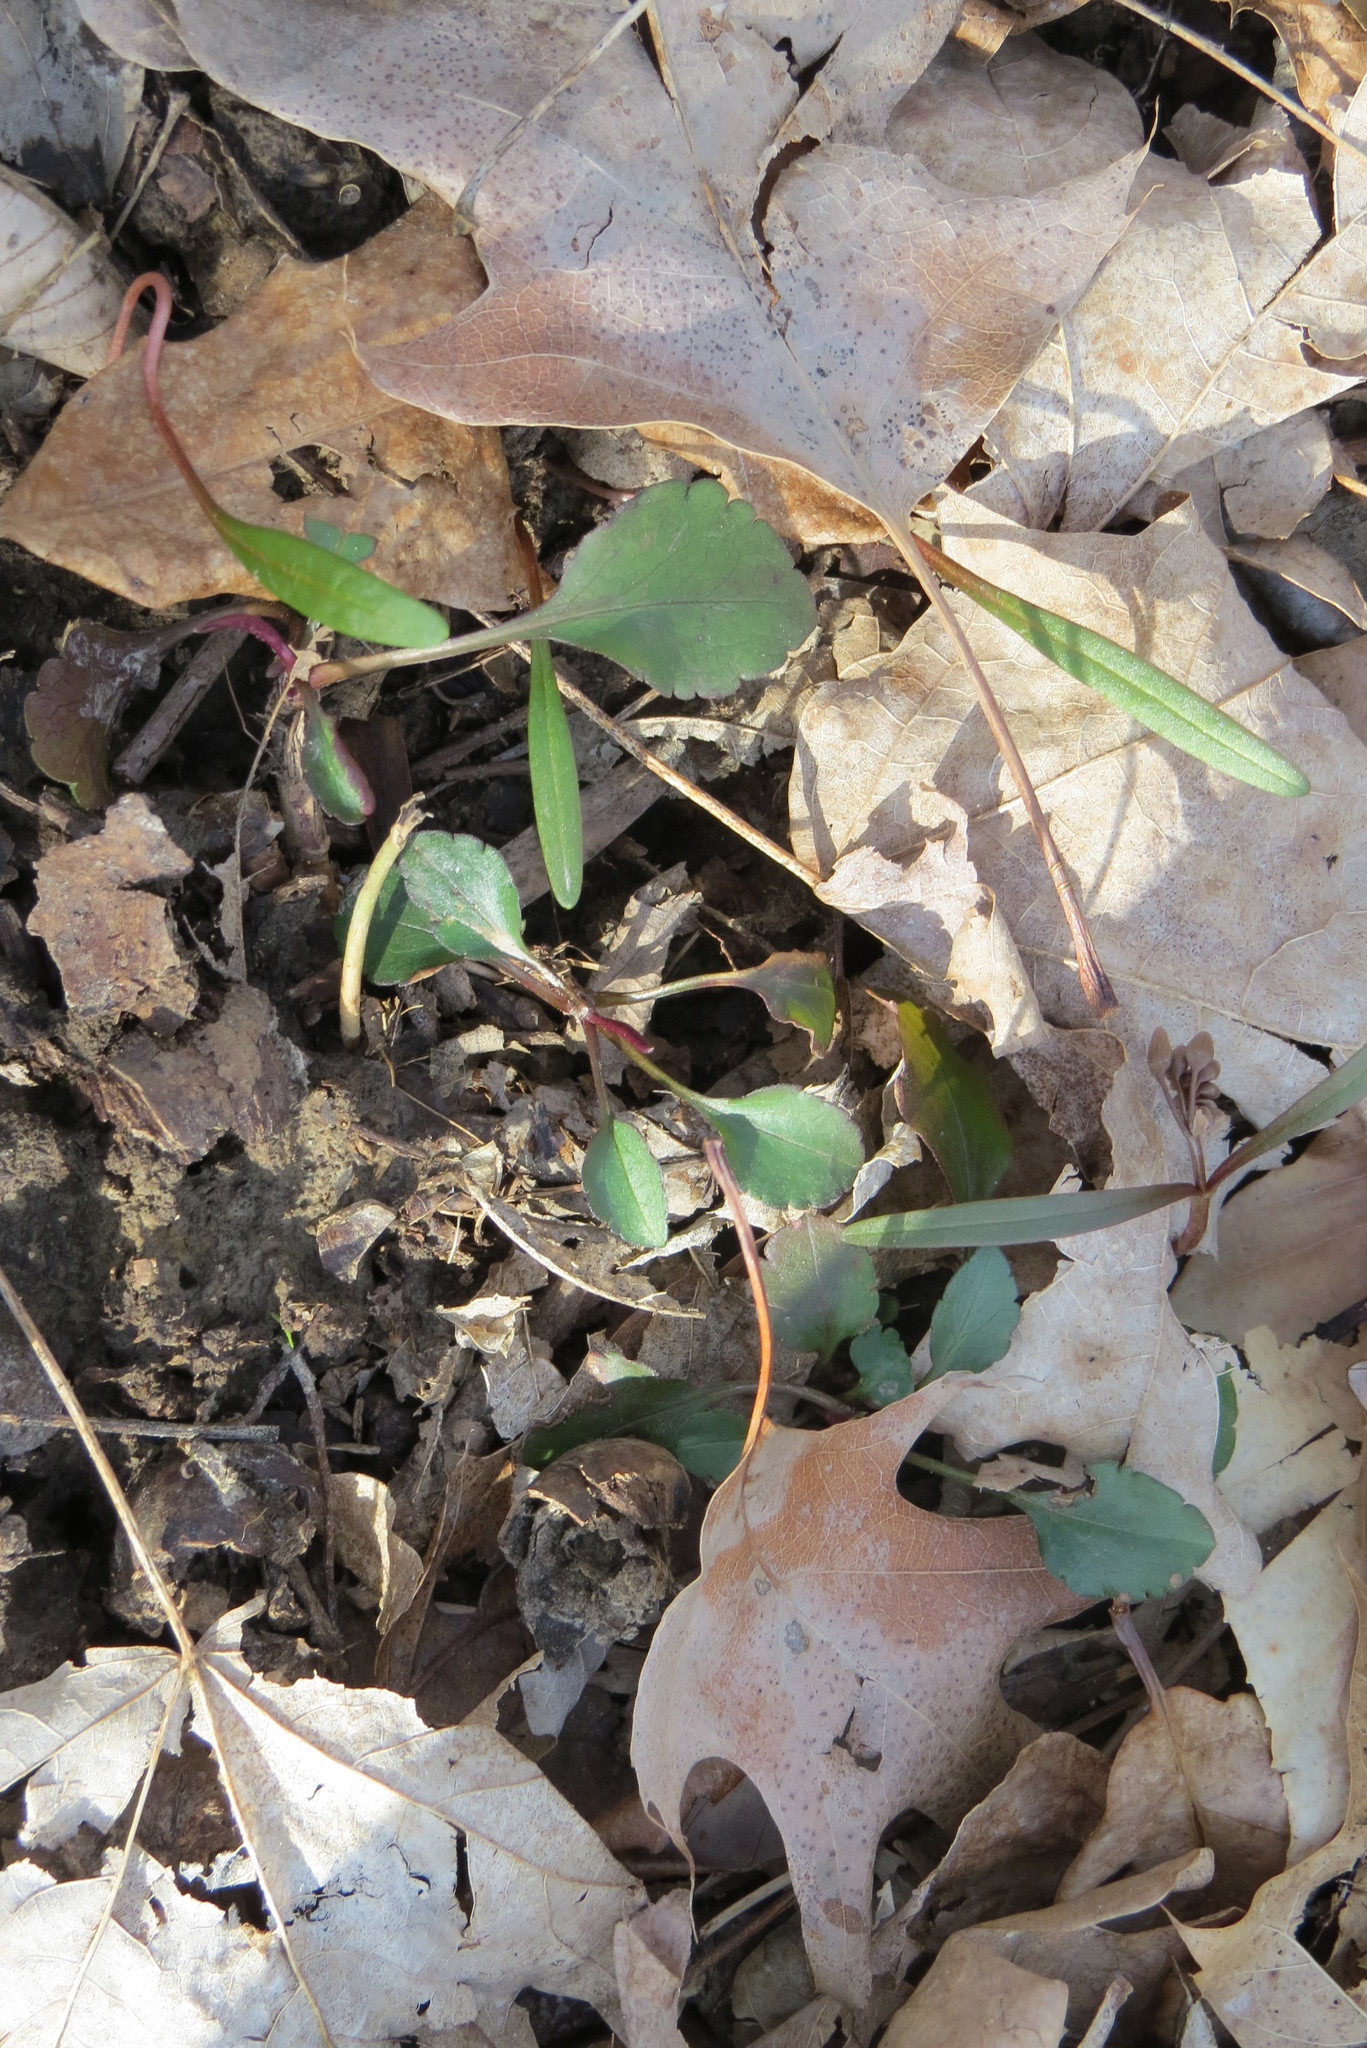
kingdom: Plantae
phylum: Tracheophyta
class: Magnoliopsida
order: Caryophyllales
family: Montiaceae
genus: Claytonia
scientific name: Claytonia virginica
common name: Virginia springbeauty
